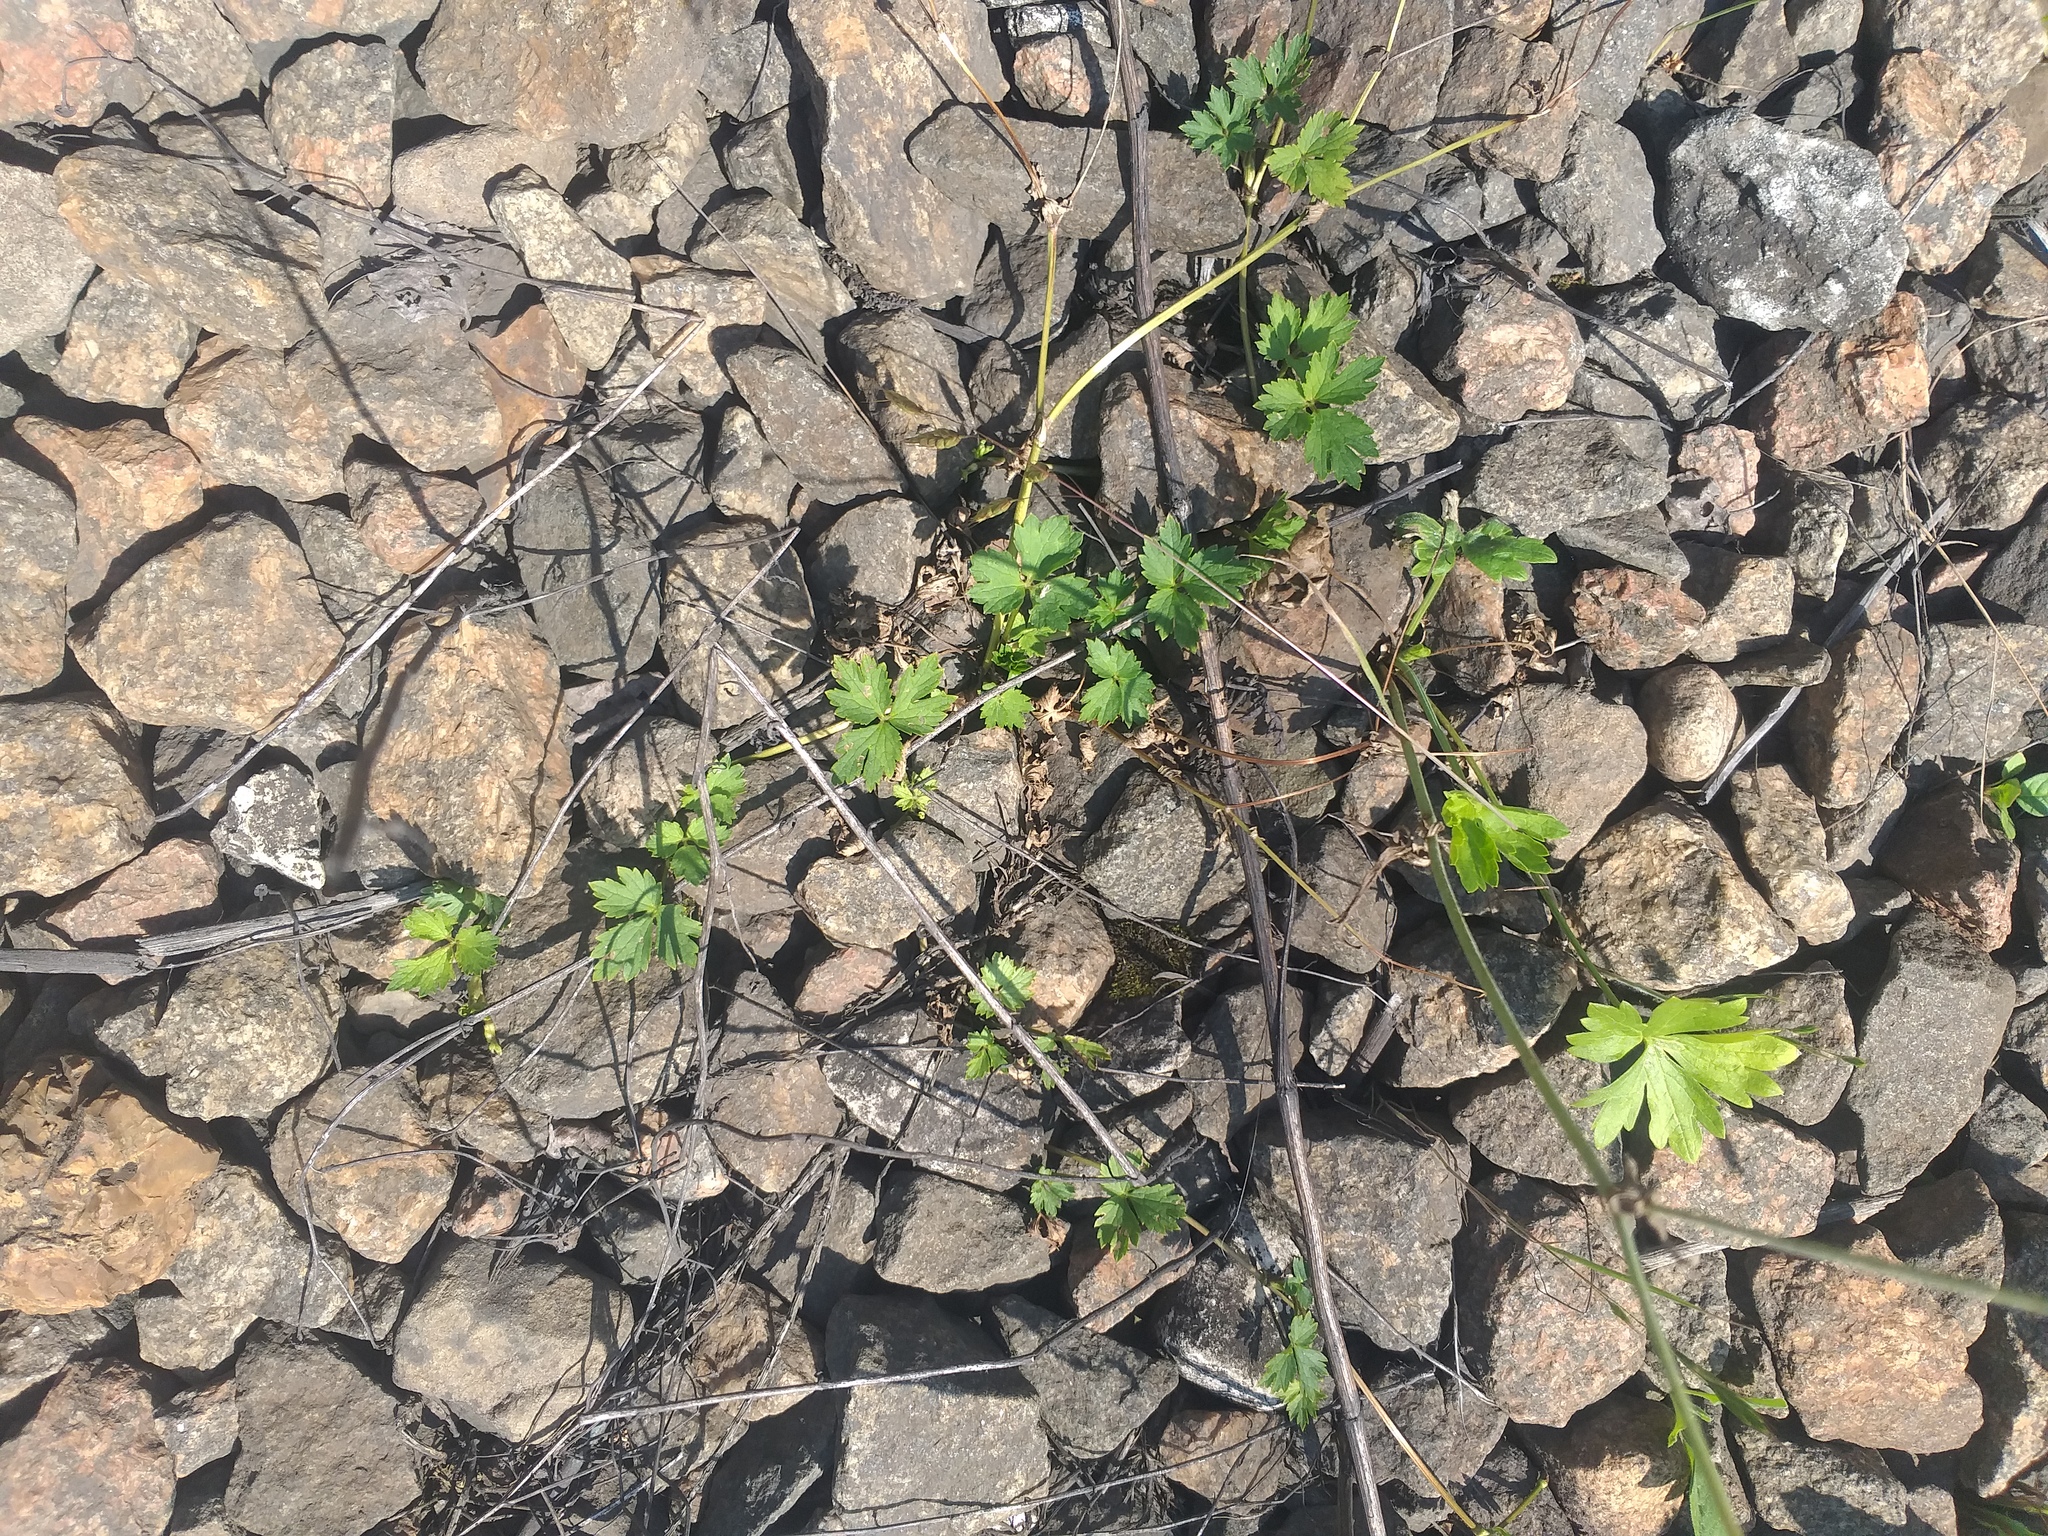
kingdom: Plantae
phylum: Tracheophyta
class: Magnoliopsida
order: Ranunculales
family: Ranunculaceae
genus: Ranunculus
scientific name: Ranunculus repens
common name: Creeping buttercup
